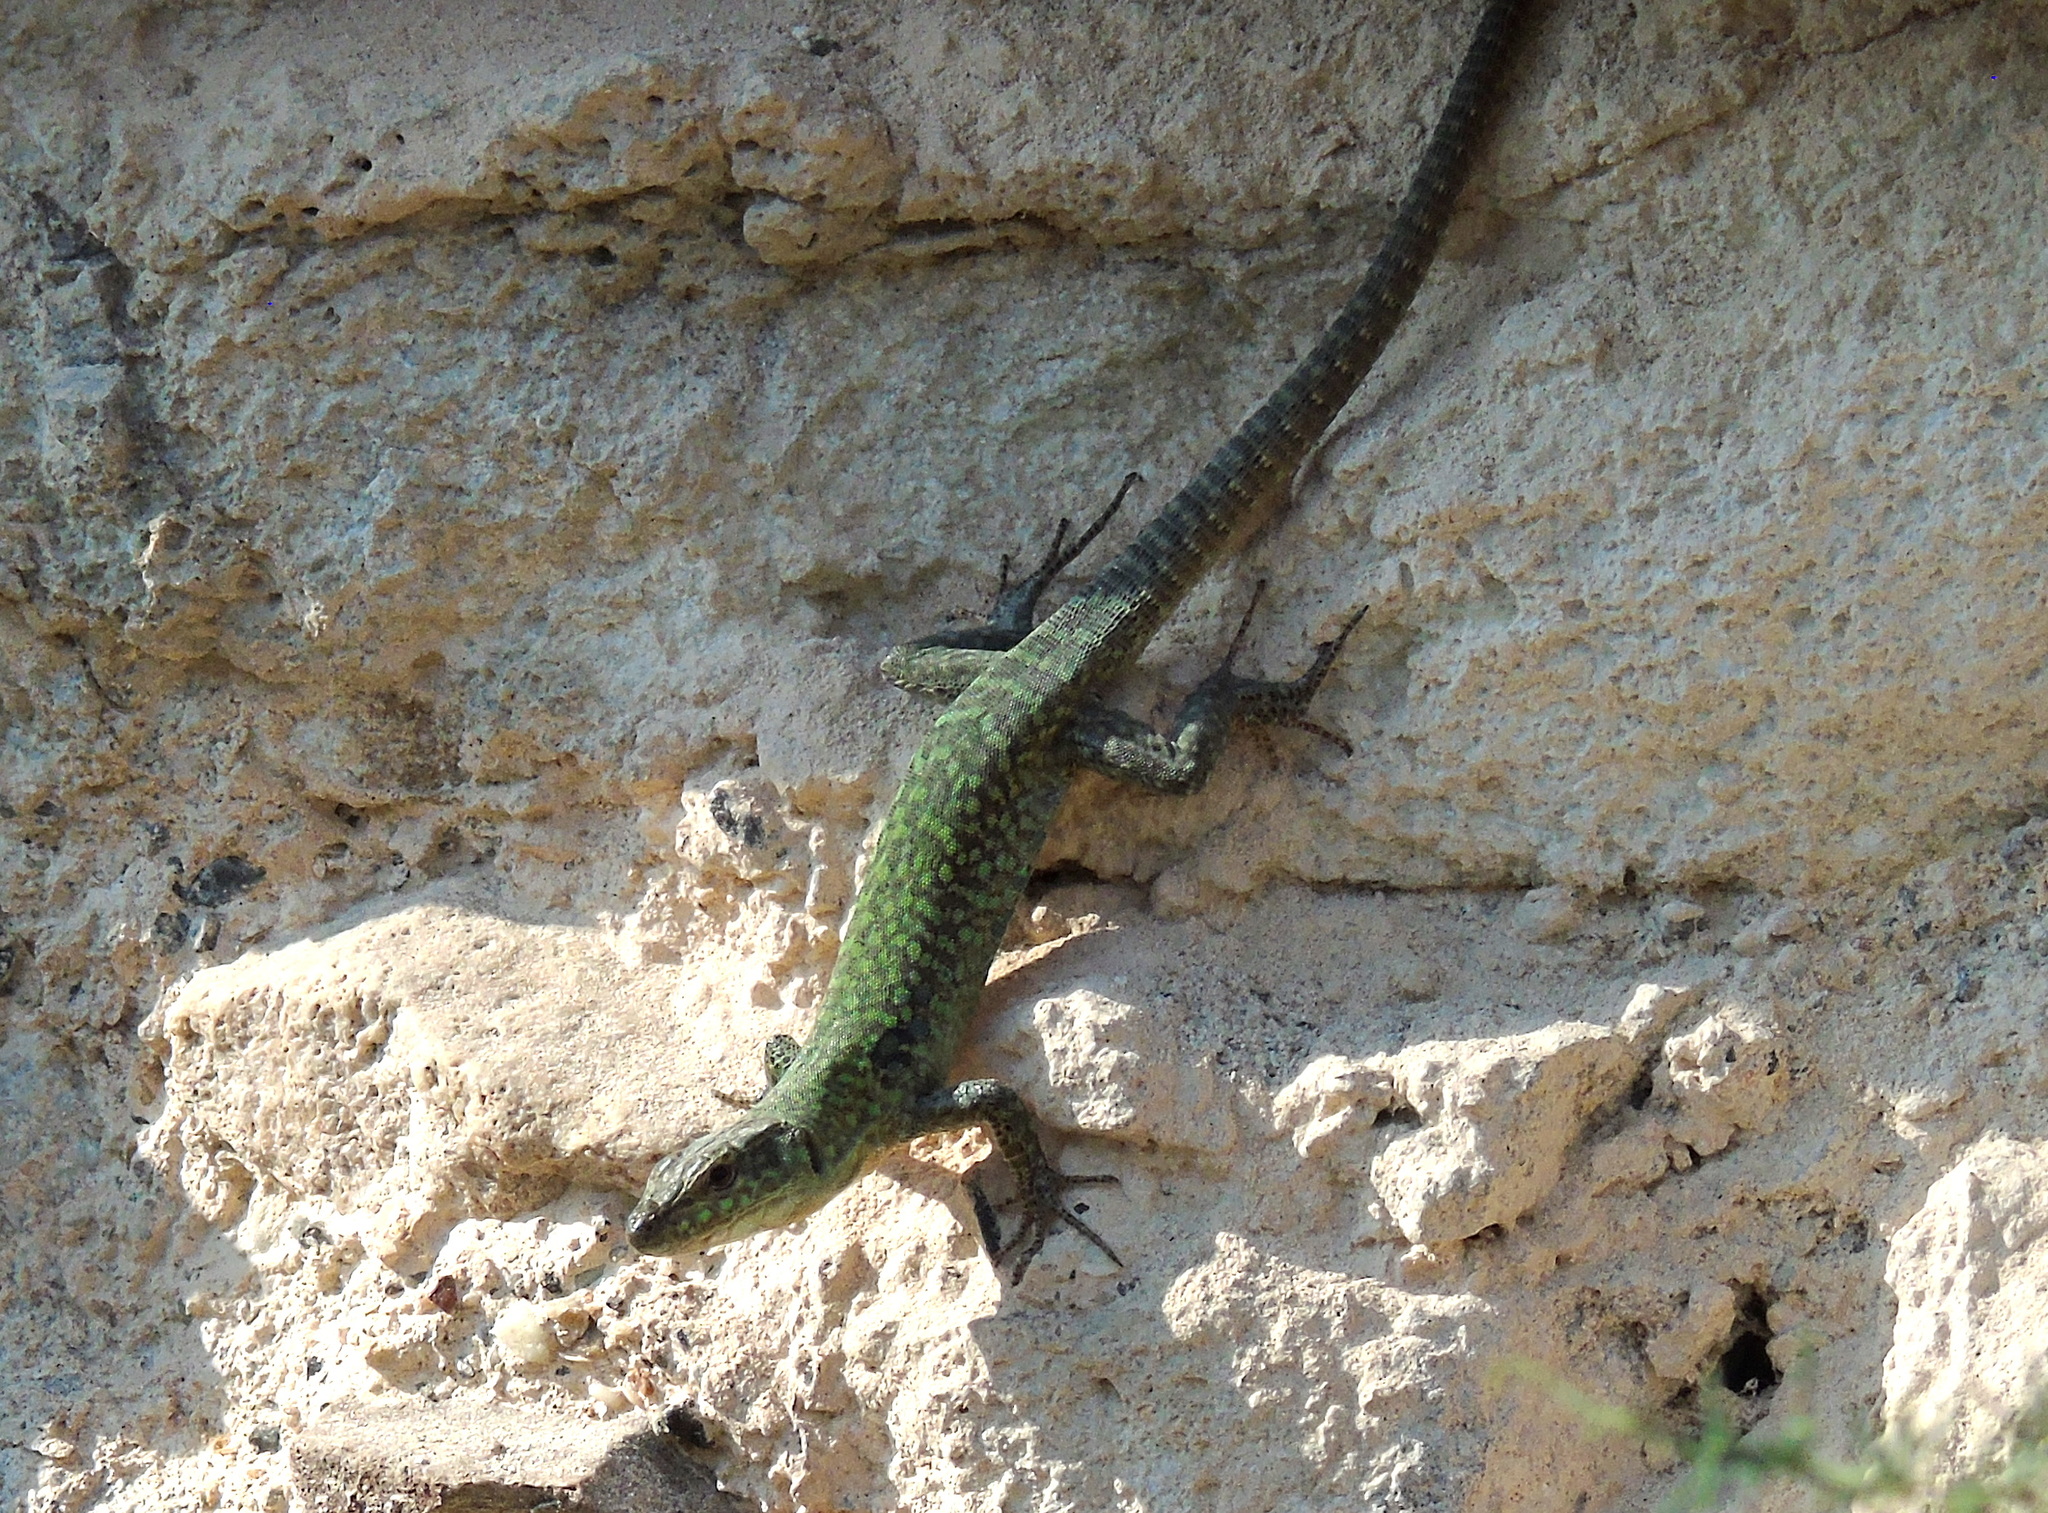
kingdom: Animalia
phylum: Chordata
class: Squamata
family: Lacertidae
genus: Podarcis
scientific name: Podarcis siculus
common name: Italian wall lizard
